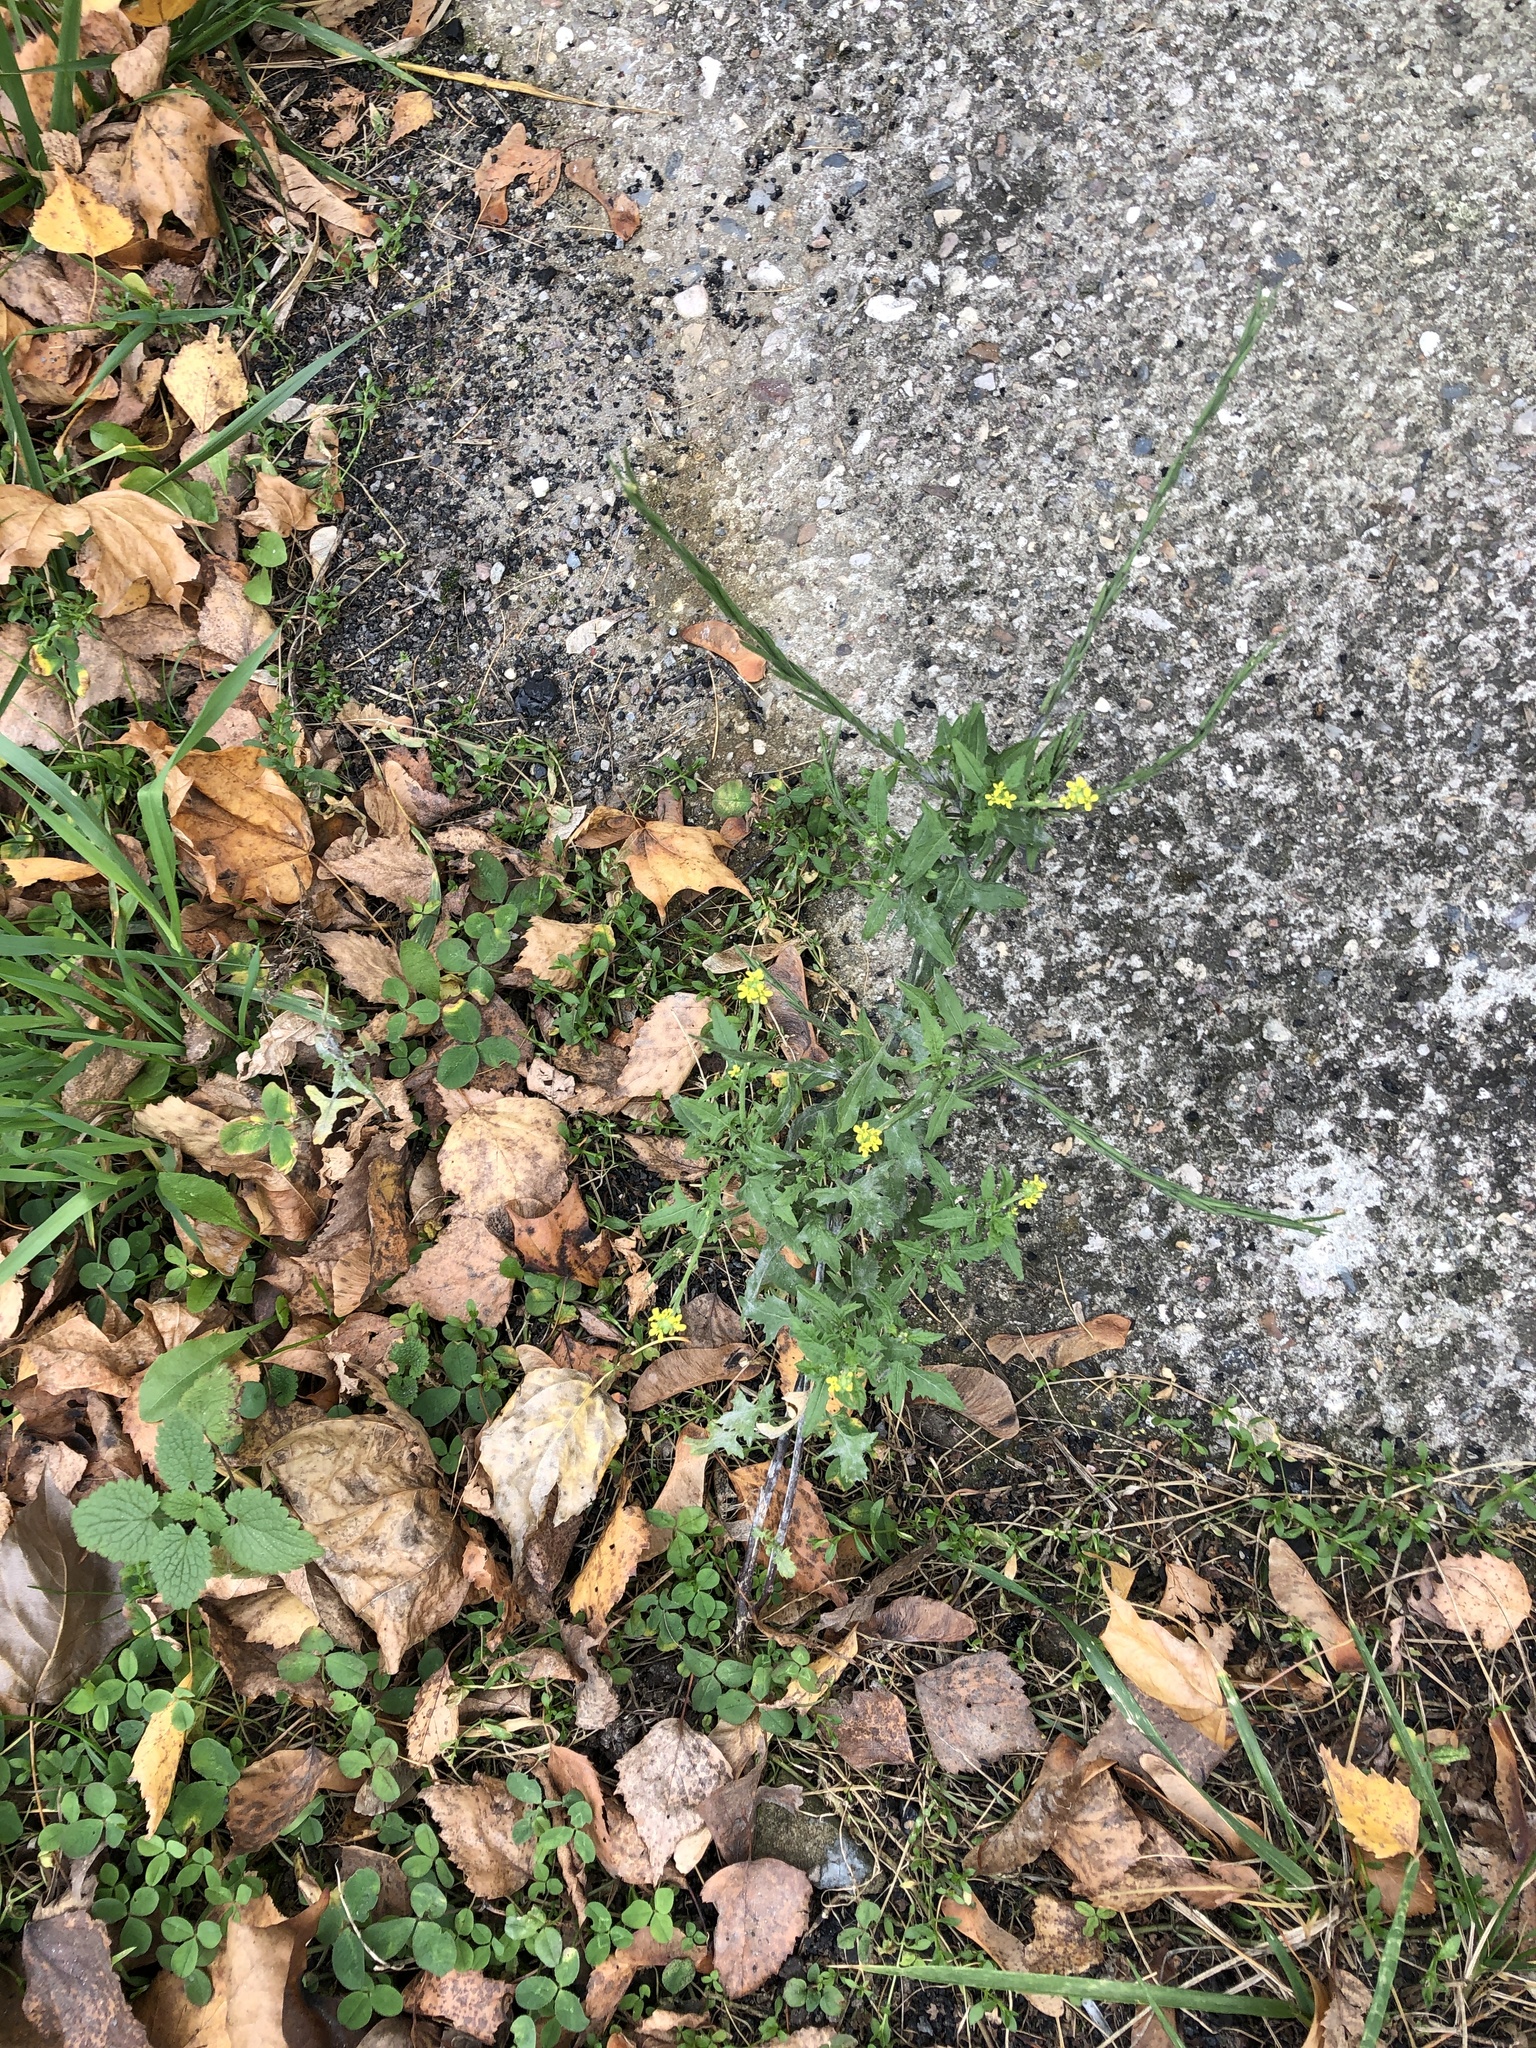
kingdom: Plantae
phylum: Tracheophyta
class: Magnoliopsida
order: Brassicales
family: Brassicaceae
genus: Sisymbrium
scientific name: Sisymbrium officinale
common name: Hedge mustard
